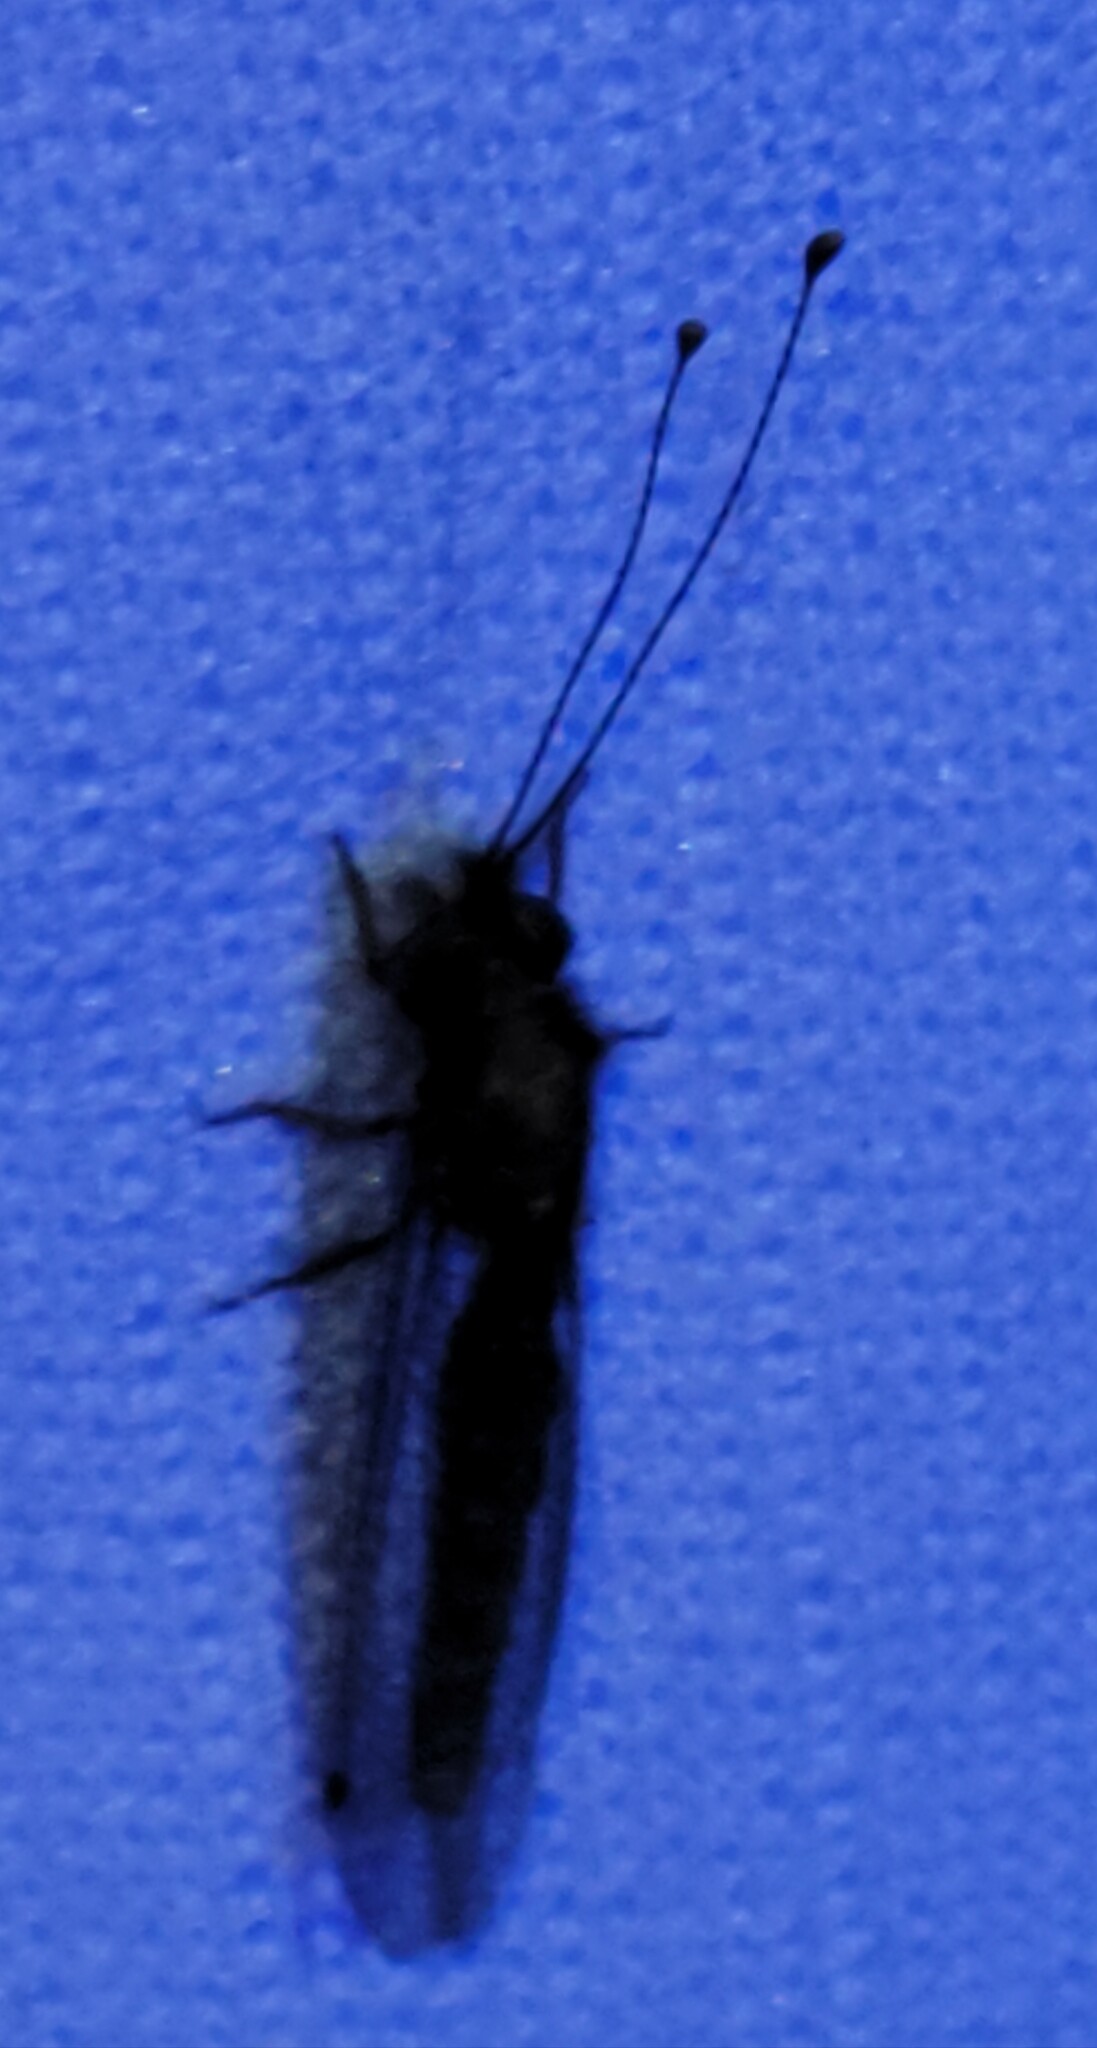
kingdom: Animalia
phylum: Arthropoda
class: Insecta
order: Neuroptera
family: Ascalaphidae
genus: Ululodes
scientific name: Ululodes macleayanus
